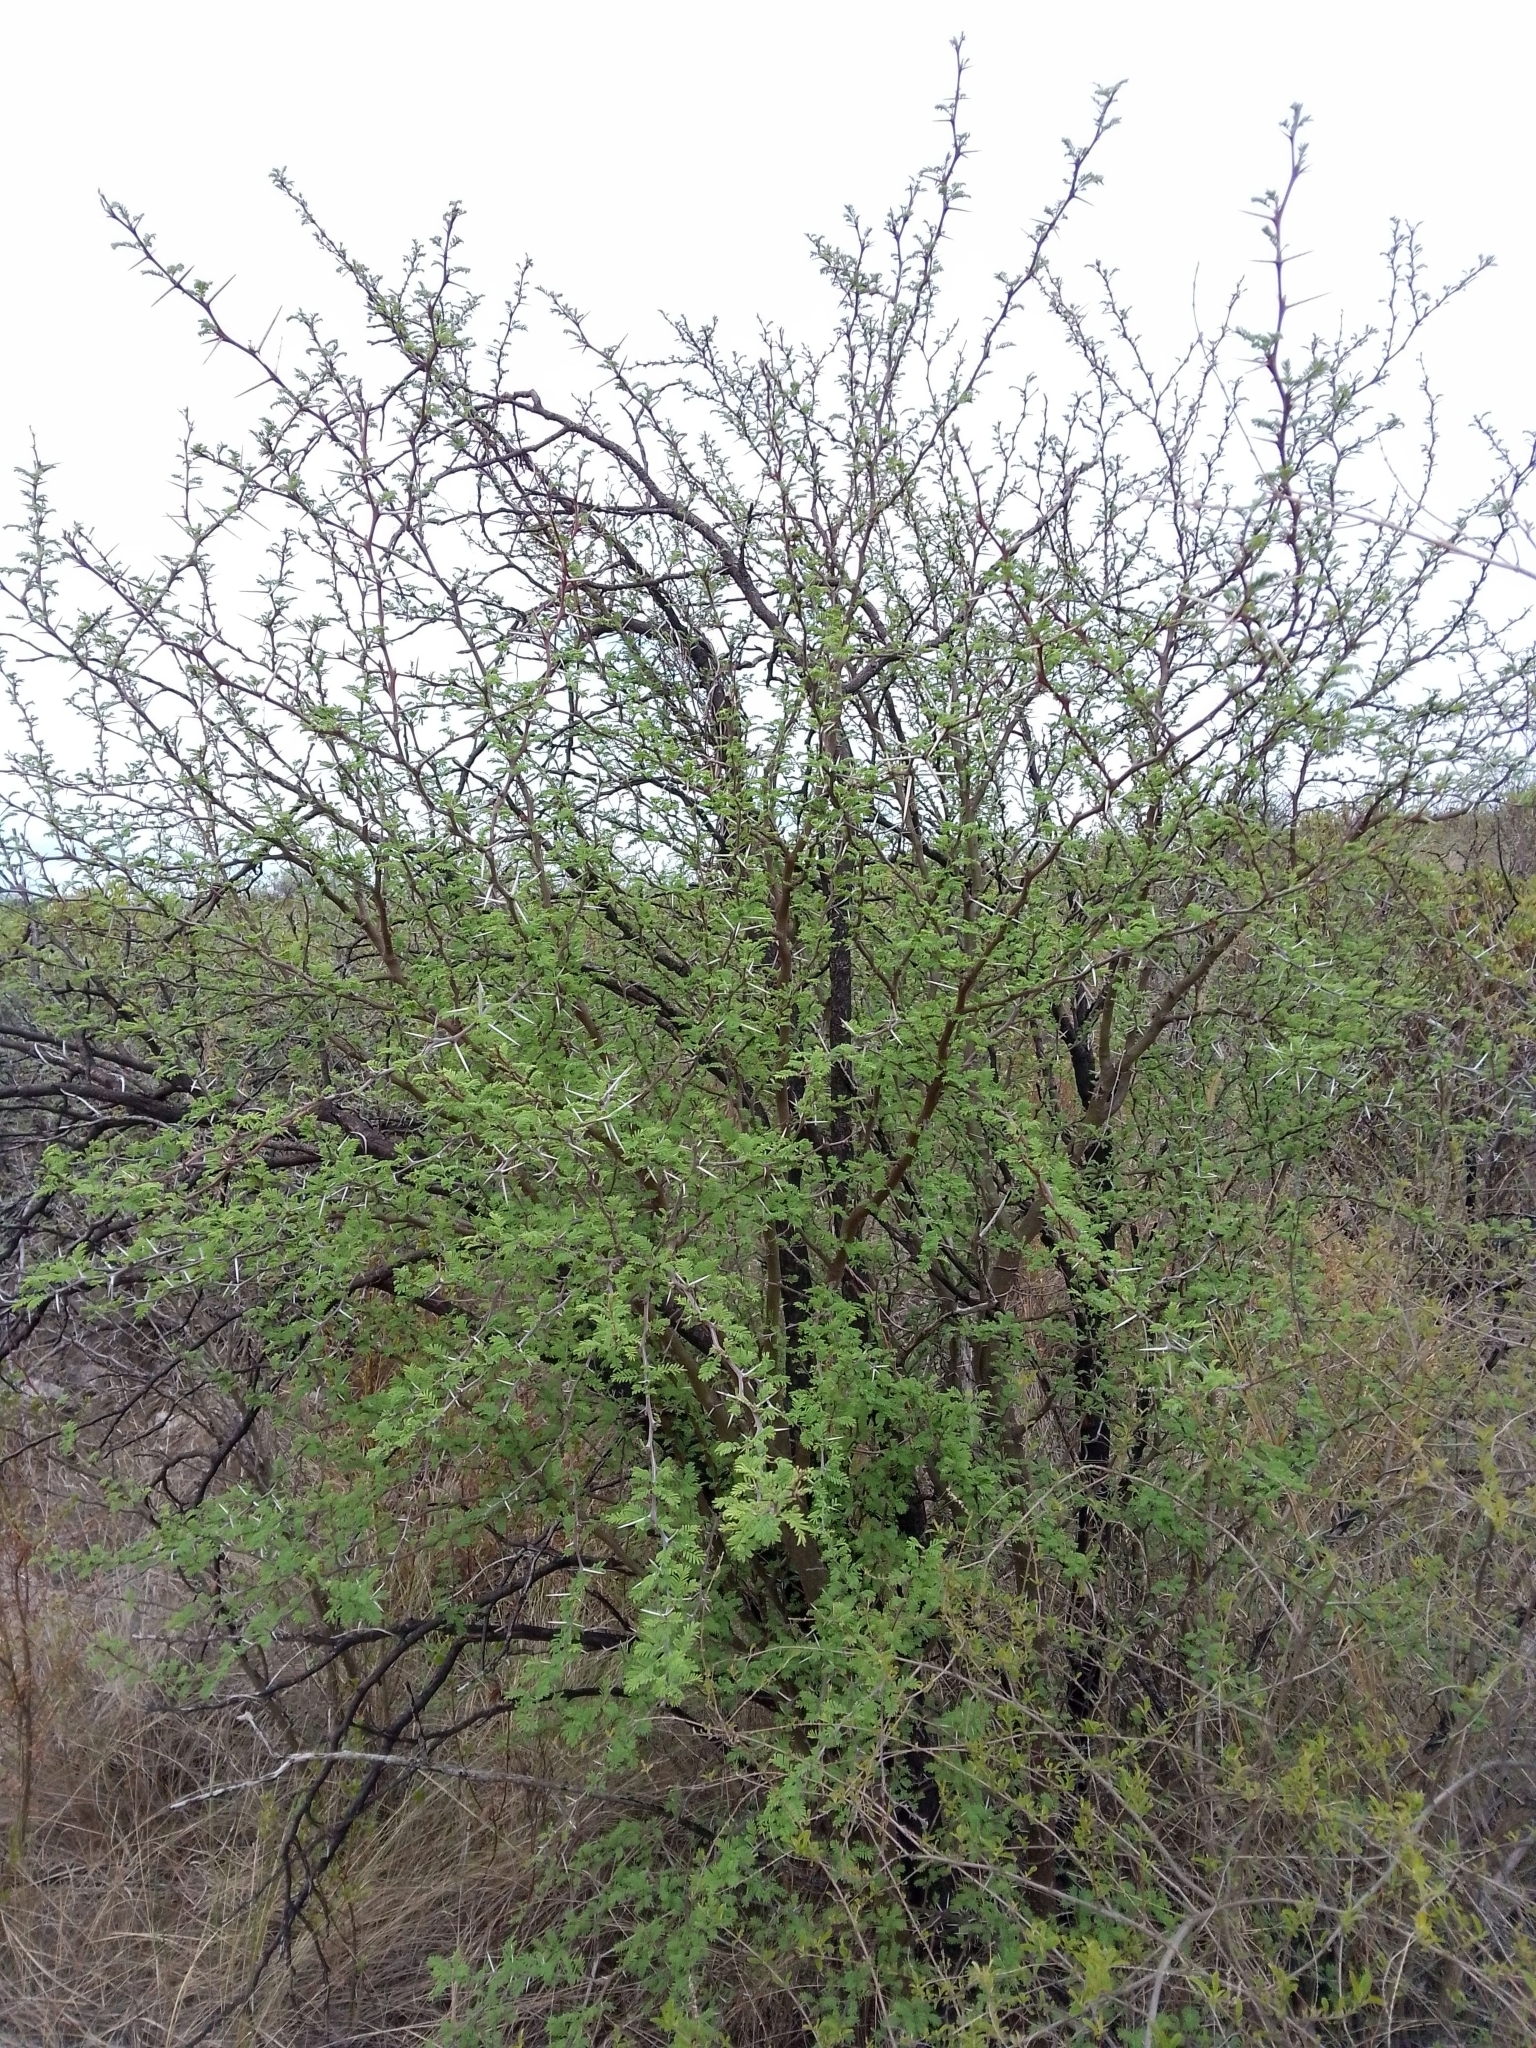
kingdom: Plantae
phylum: Tracheophyta
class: Magnoliopsida
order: Fabales
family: Fabaceae
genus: Vachellia
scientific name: Vachellia caven
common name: Roman cassie
